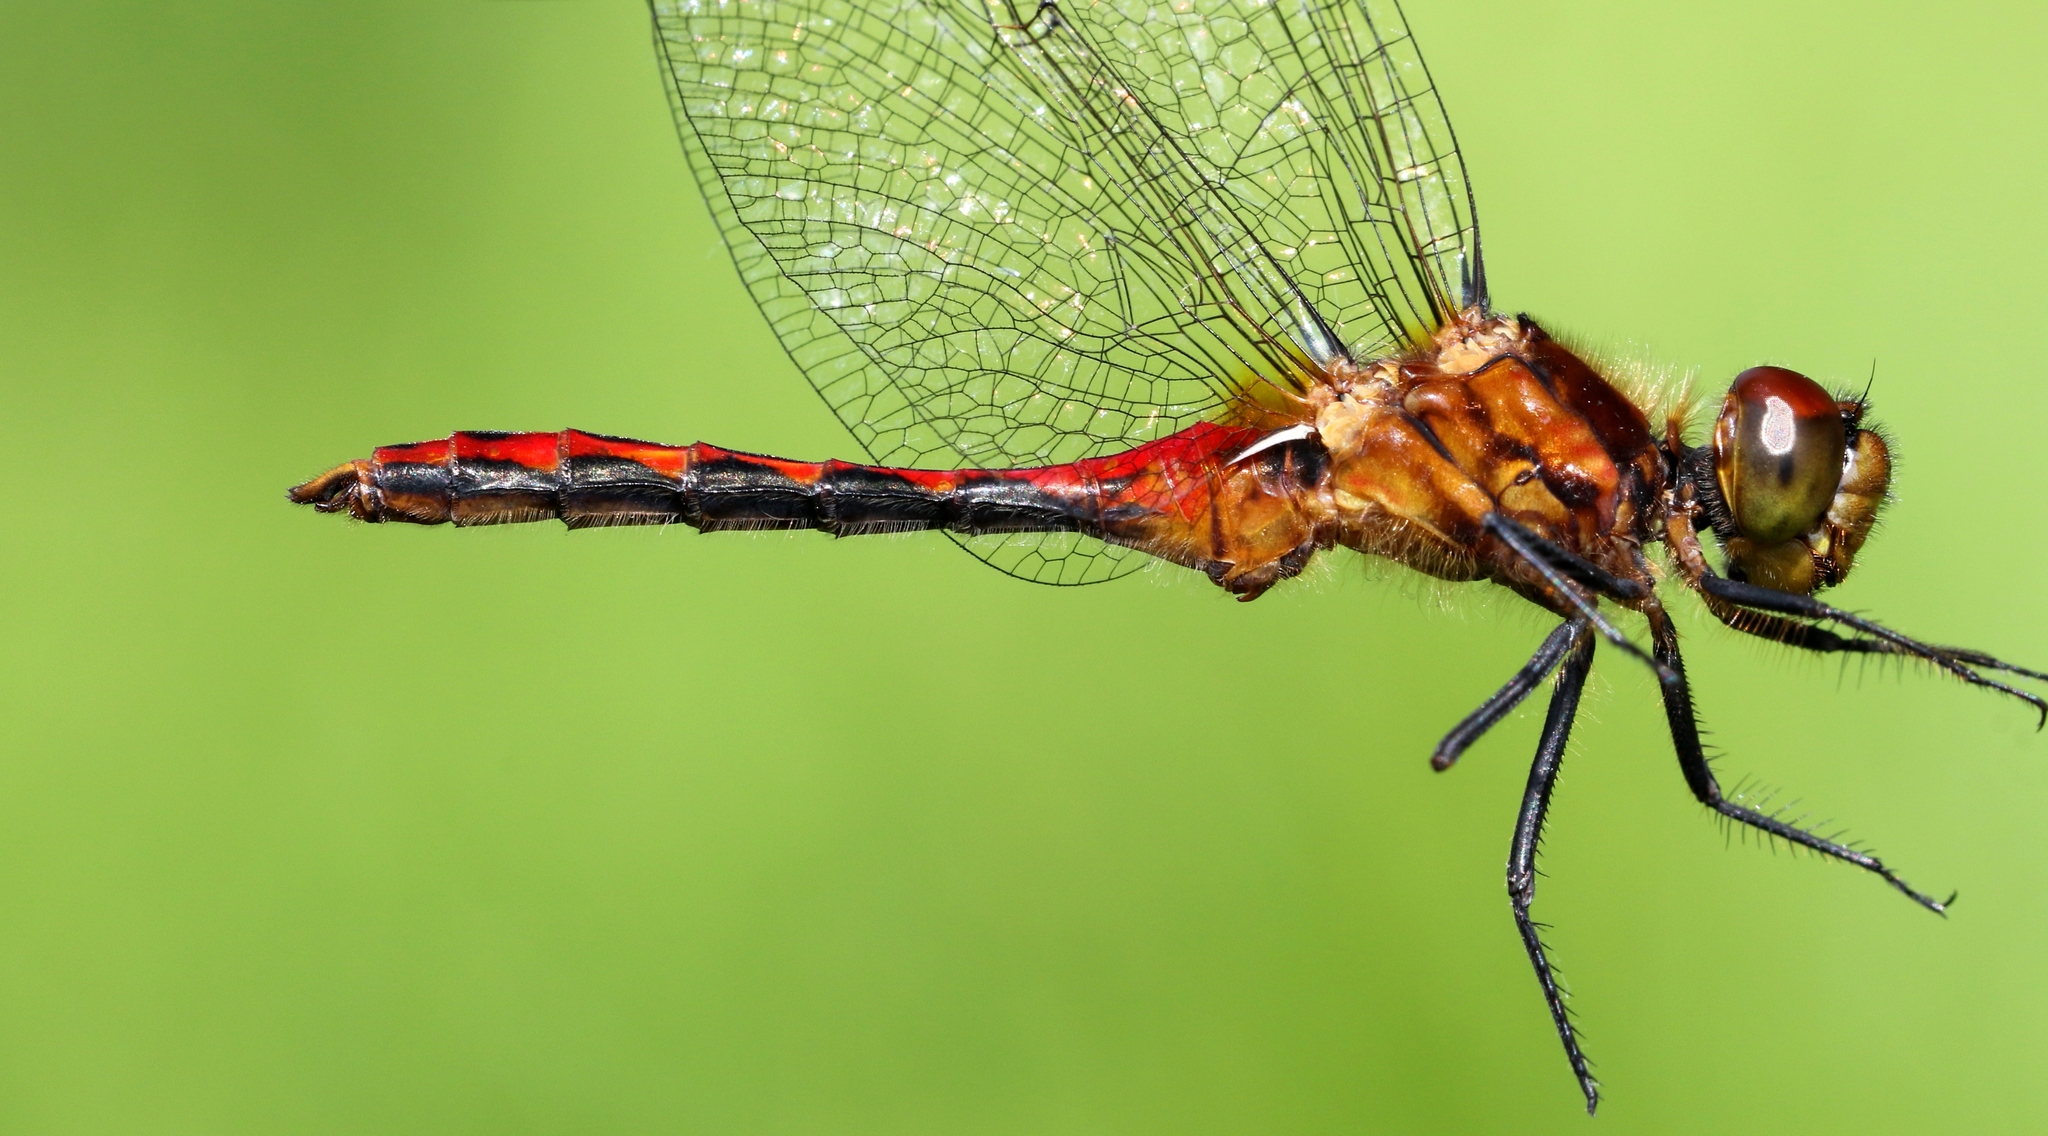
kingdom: Animalia
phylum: Arthropoda
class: Insecta
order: Odonata
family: Libellulidae
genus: Sympetrum
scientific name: Sympetrum internum
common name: Cherry-faced meadowhawk
